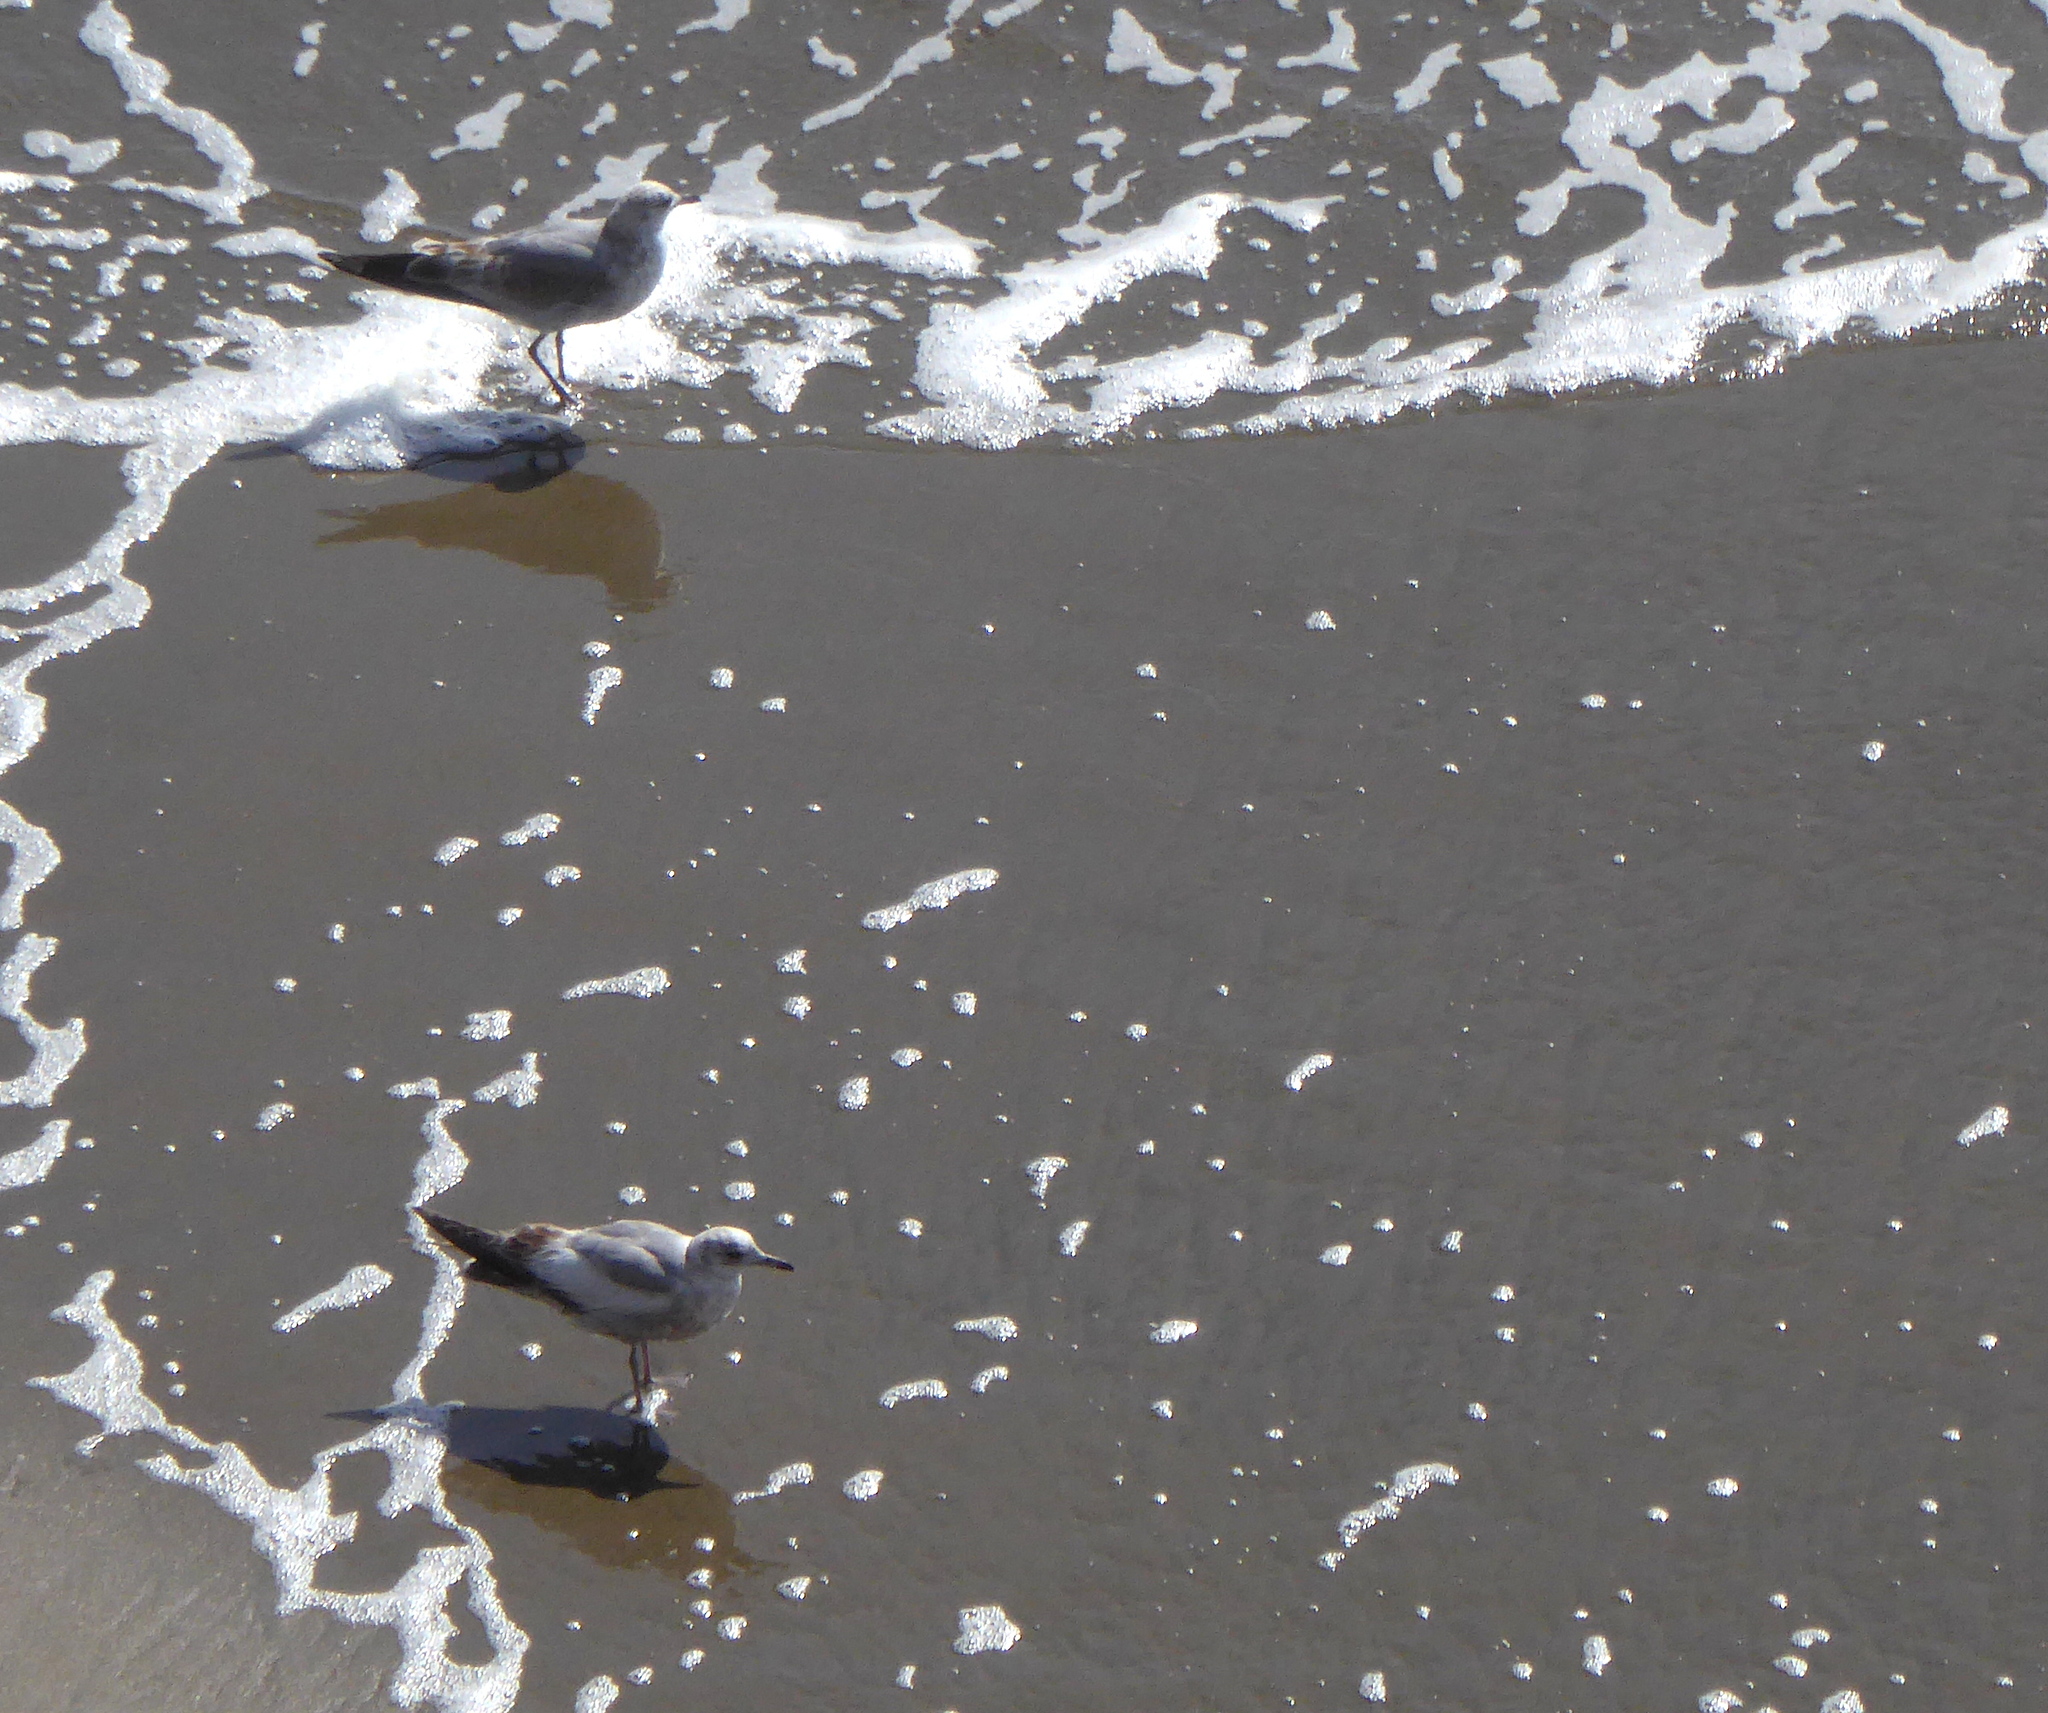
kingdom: Animalia
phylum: Chordata
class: Aves
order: Charadriiformes
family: Laridae
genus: Larus
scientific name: Larus brachyrhynchus
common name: Short-billed gull
